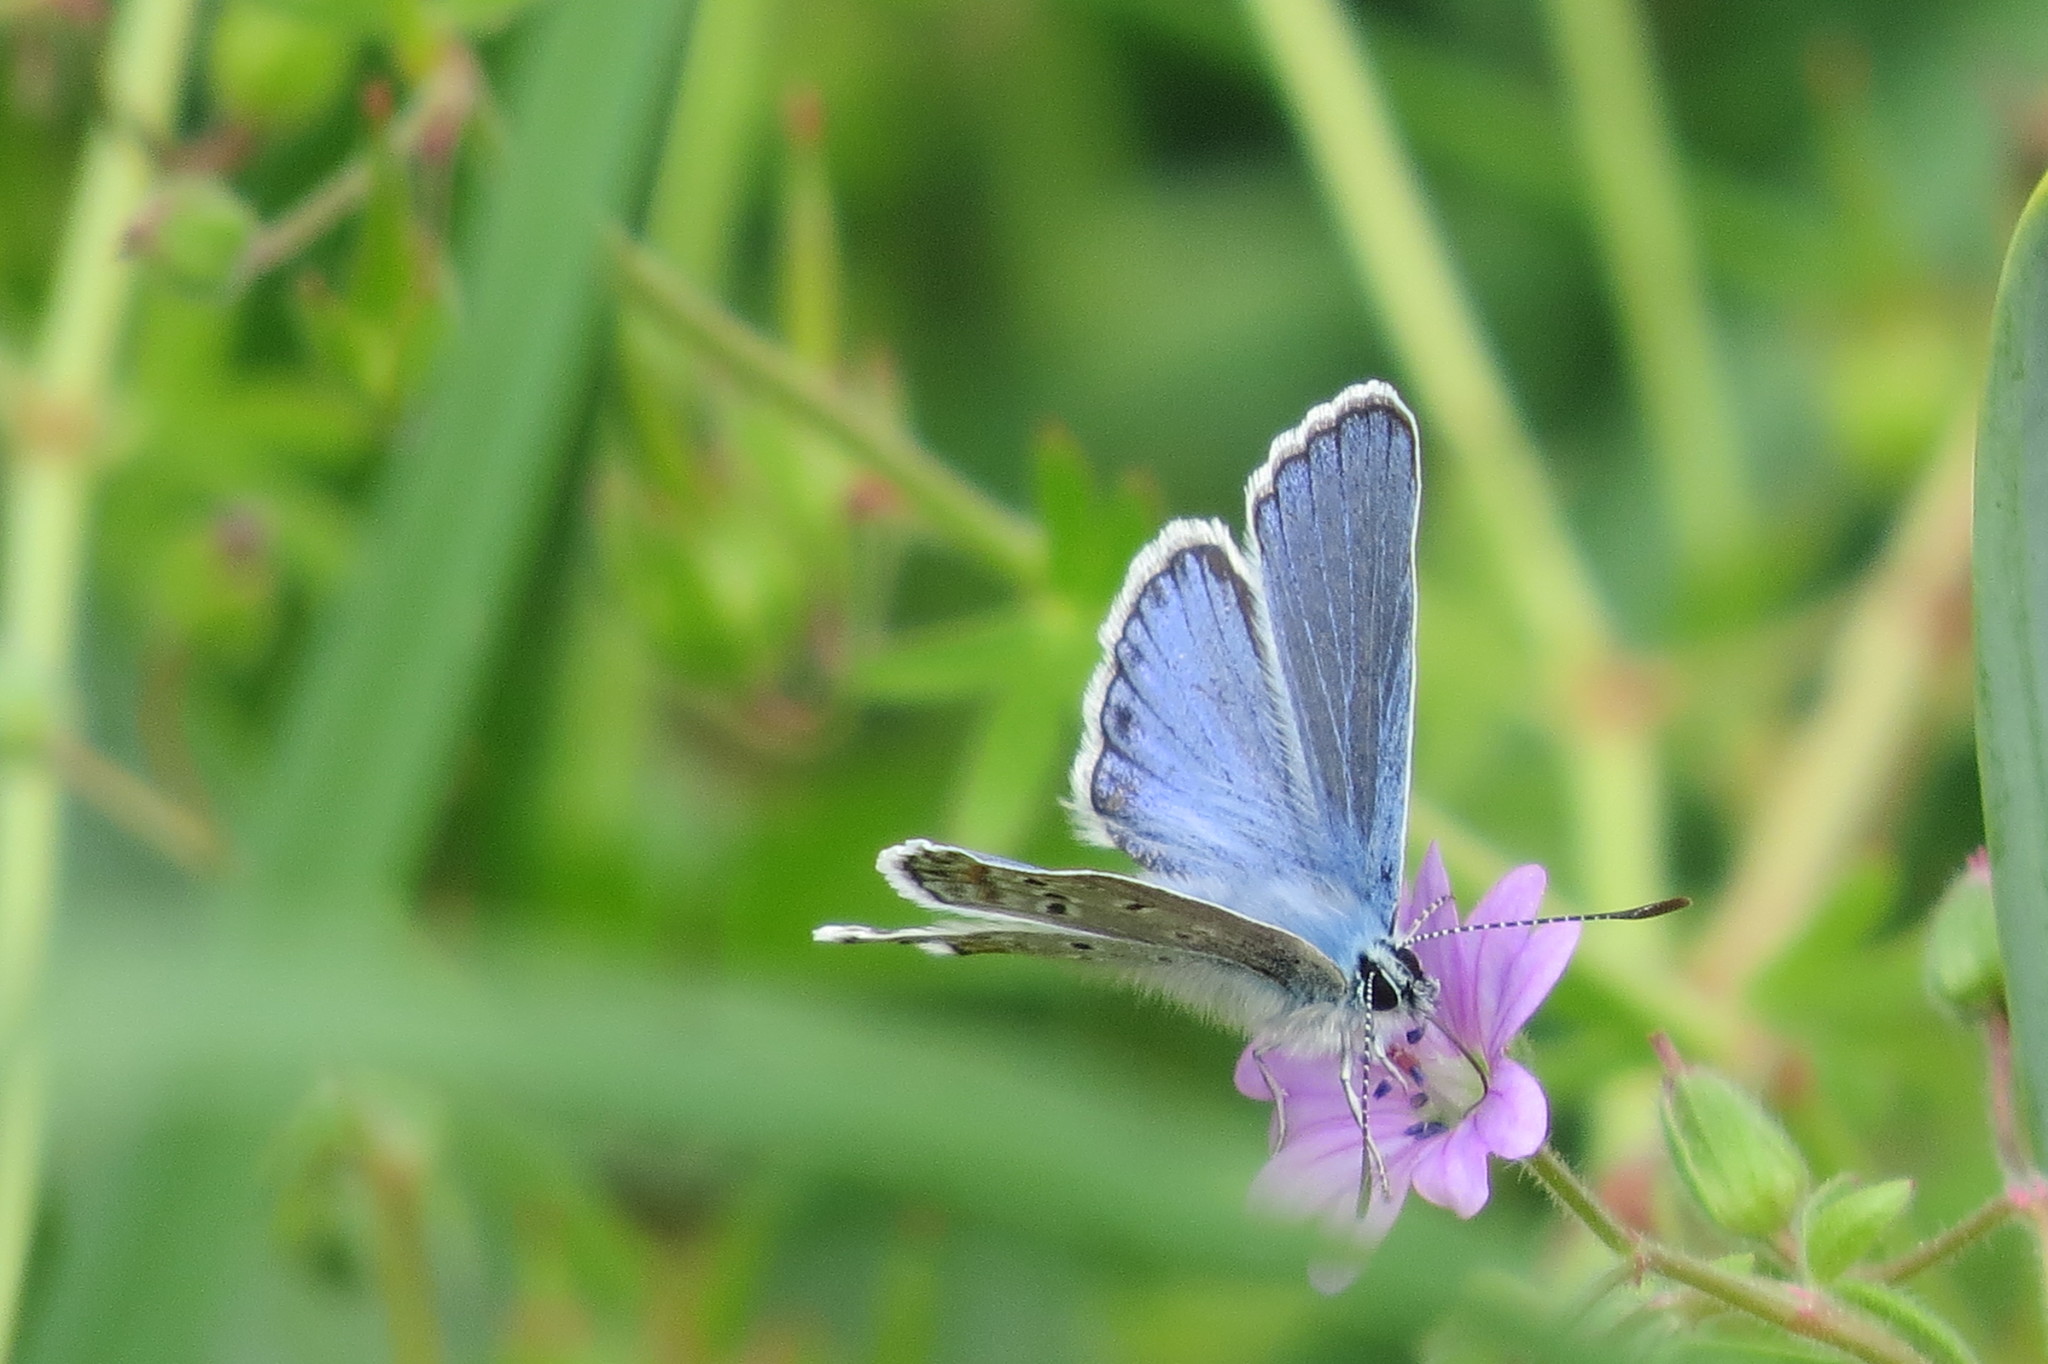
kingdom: Animalia
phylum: Arthropoda
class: Insecta
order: Lepidoptera
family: Lycaenidae
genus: Polyommatus
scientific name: Polyommatus icarus
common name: Common blue
